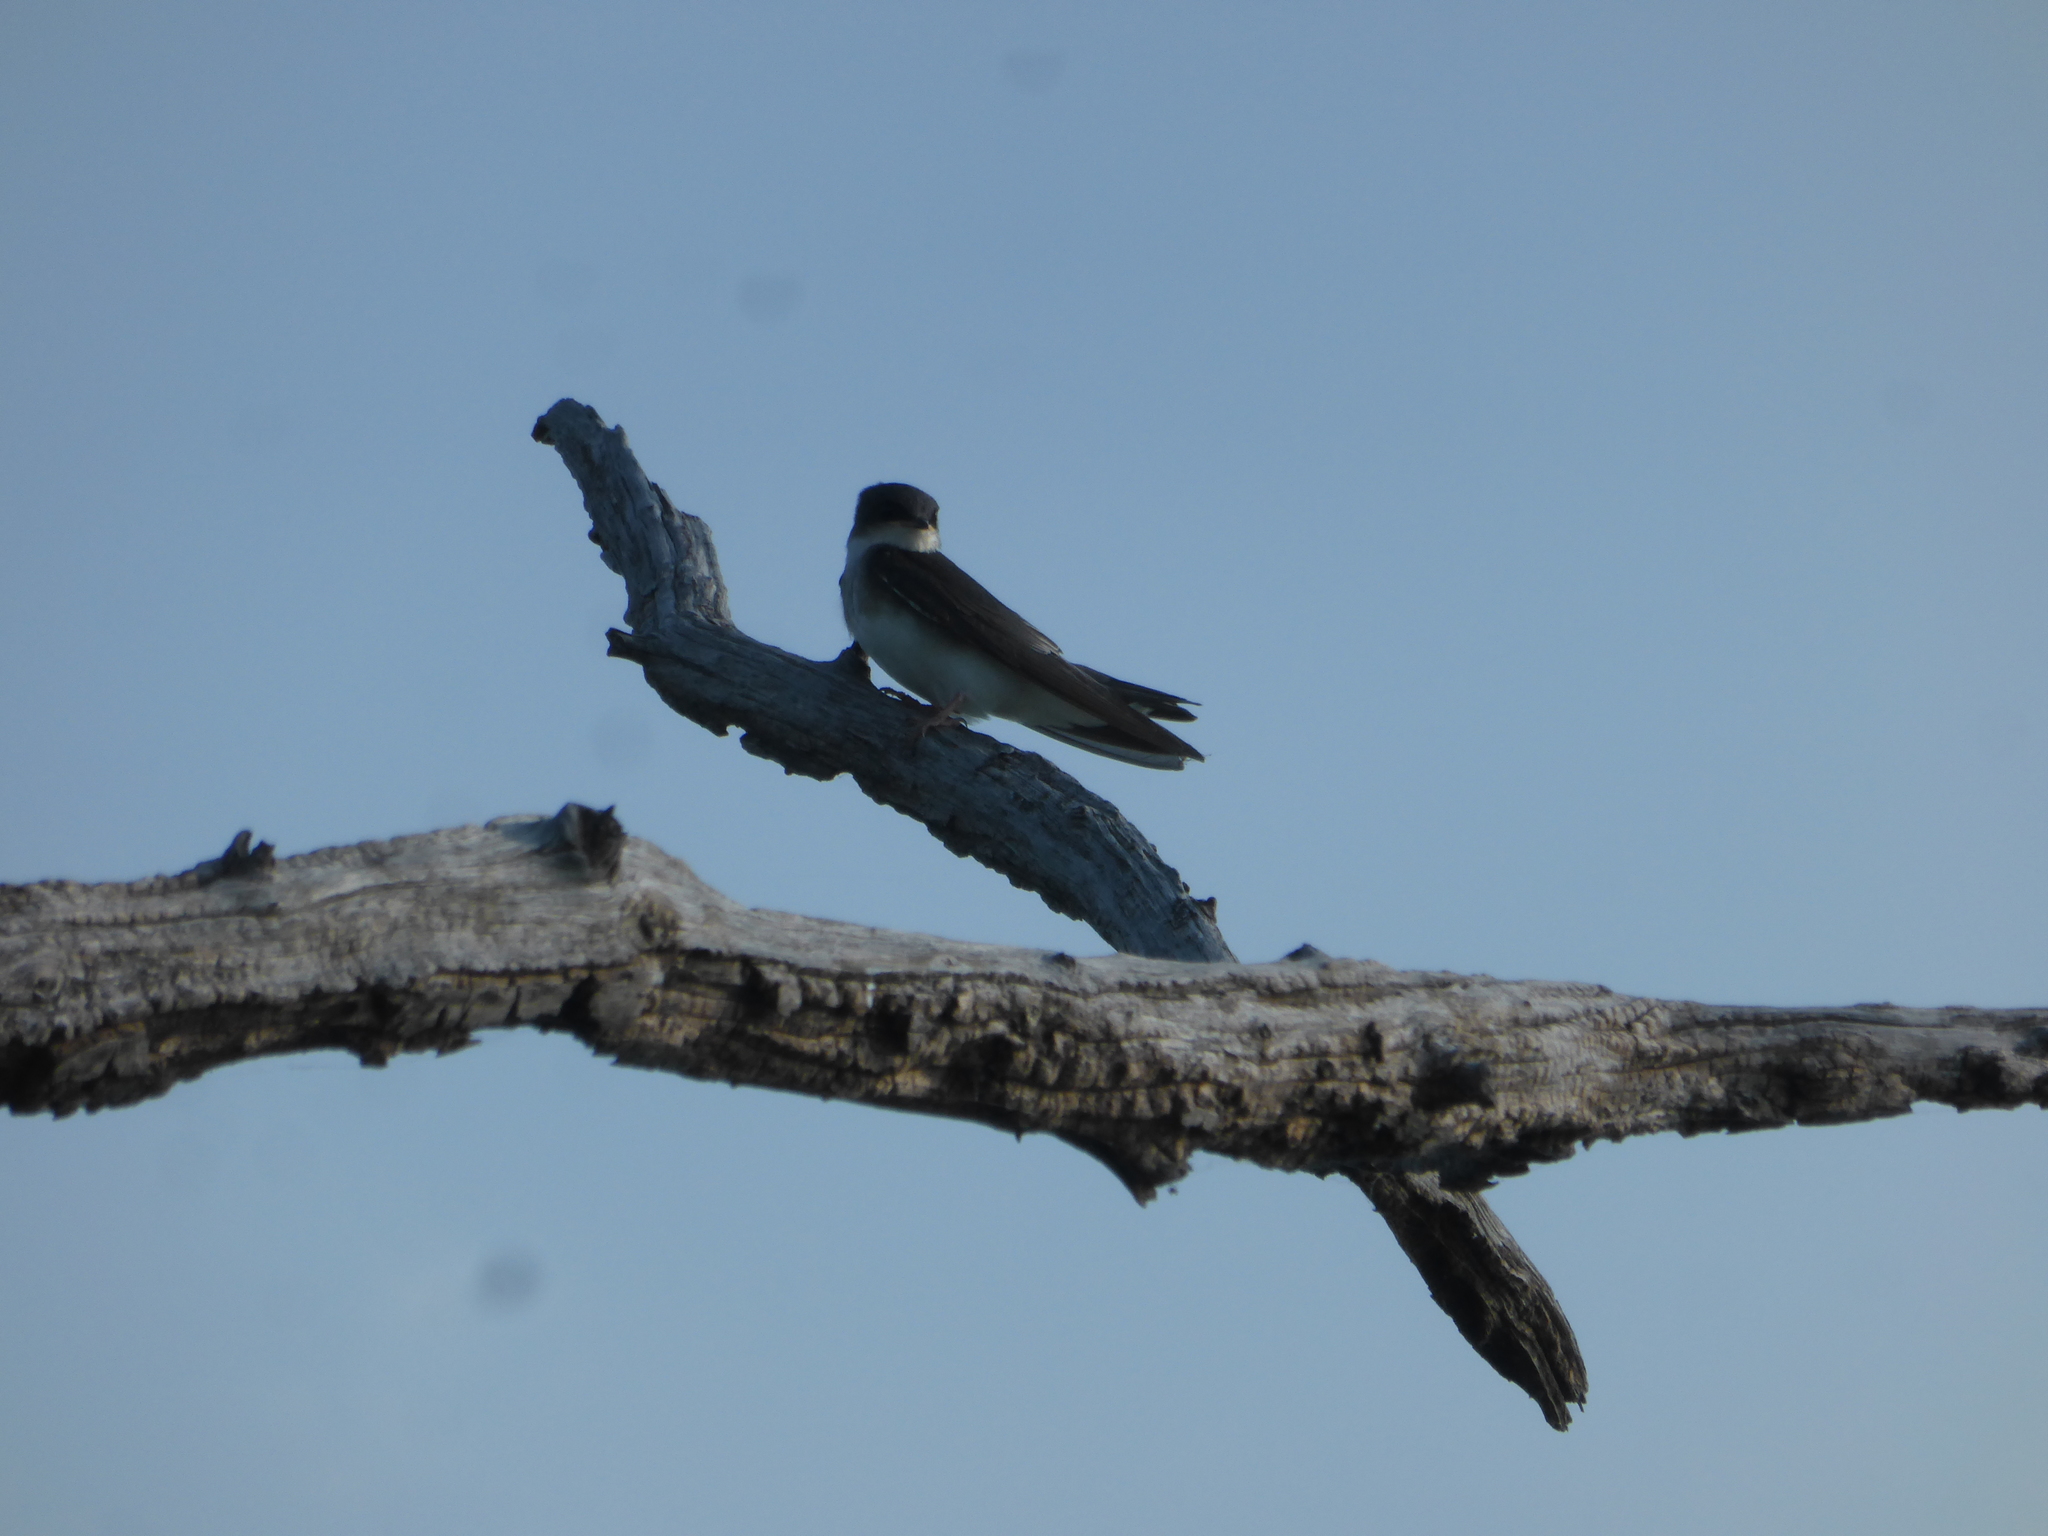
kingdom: Animalia
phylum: Chordata
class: Aves
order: Passeriformes
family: Hirundinidae
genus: Riparia
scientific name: Riparia riparia
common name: Sand martin
